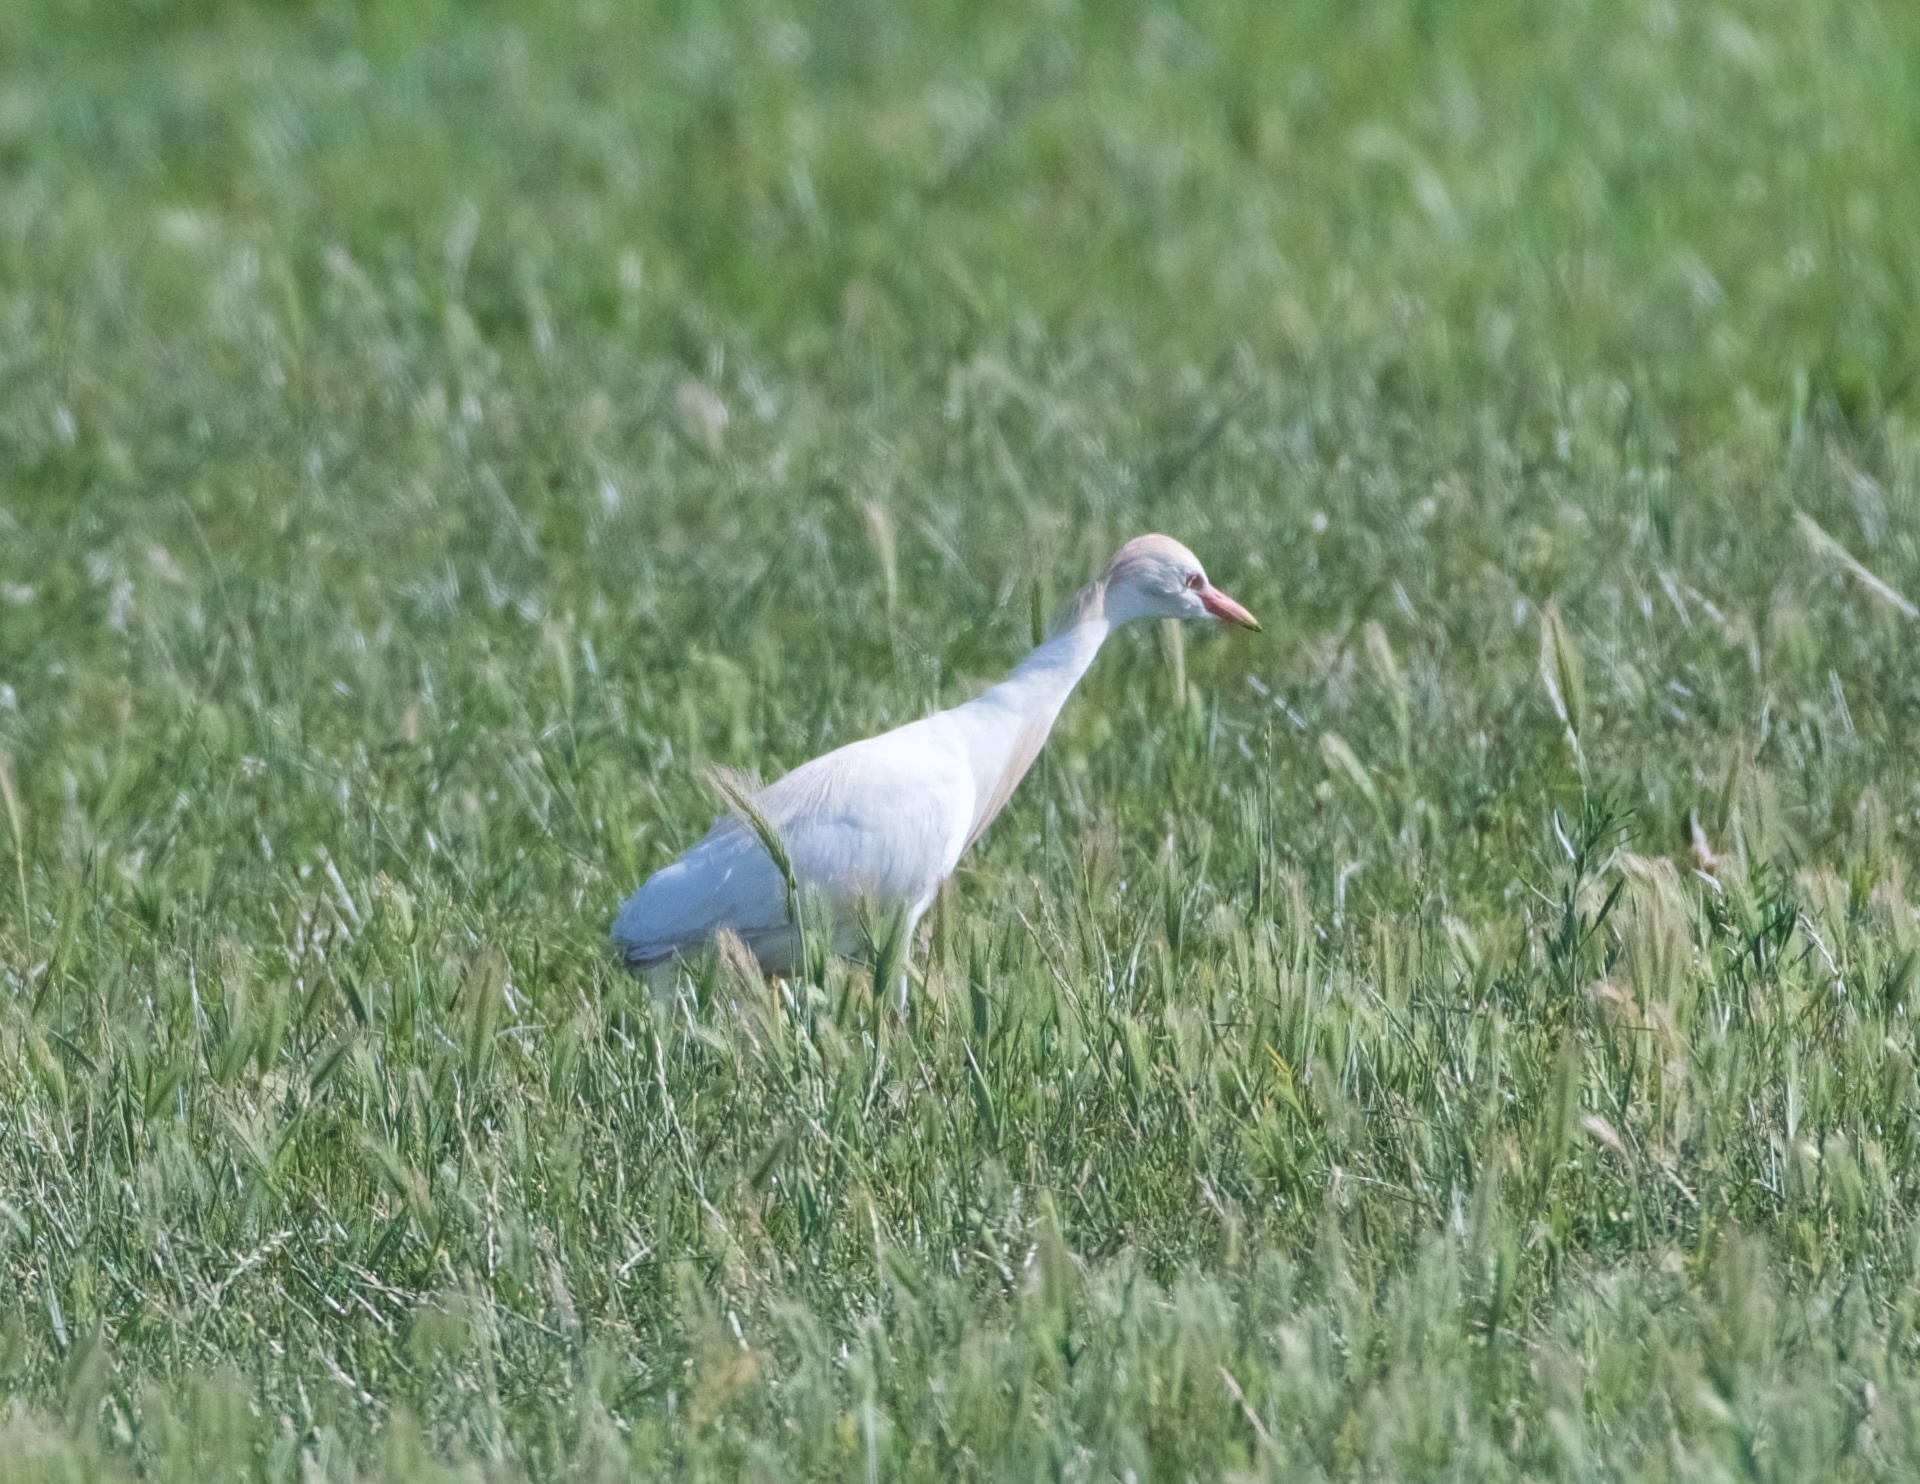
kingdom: Animalia
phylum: Chordata
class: Aves
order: Pelecaniformes
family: Ardeidae
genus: Bubulcus
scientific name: Bubulcus ibis
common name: Cattle egret
